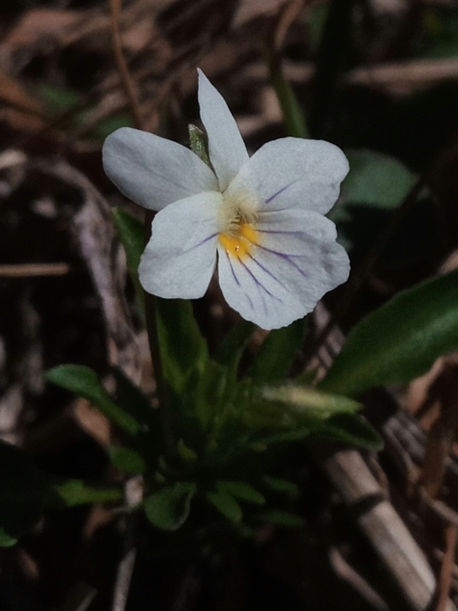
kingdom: Plantae
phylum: Tracheophyta
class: Magnoliopsida
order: Malpighiales
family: Violaceae
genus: Viola
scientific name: Viola rafinesquei
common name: American field pansy
